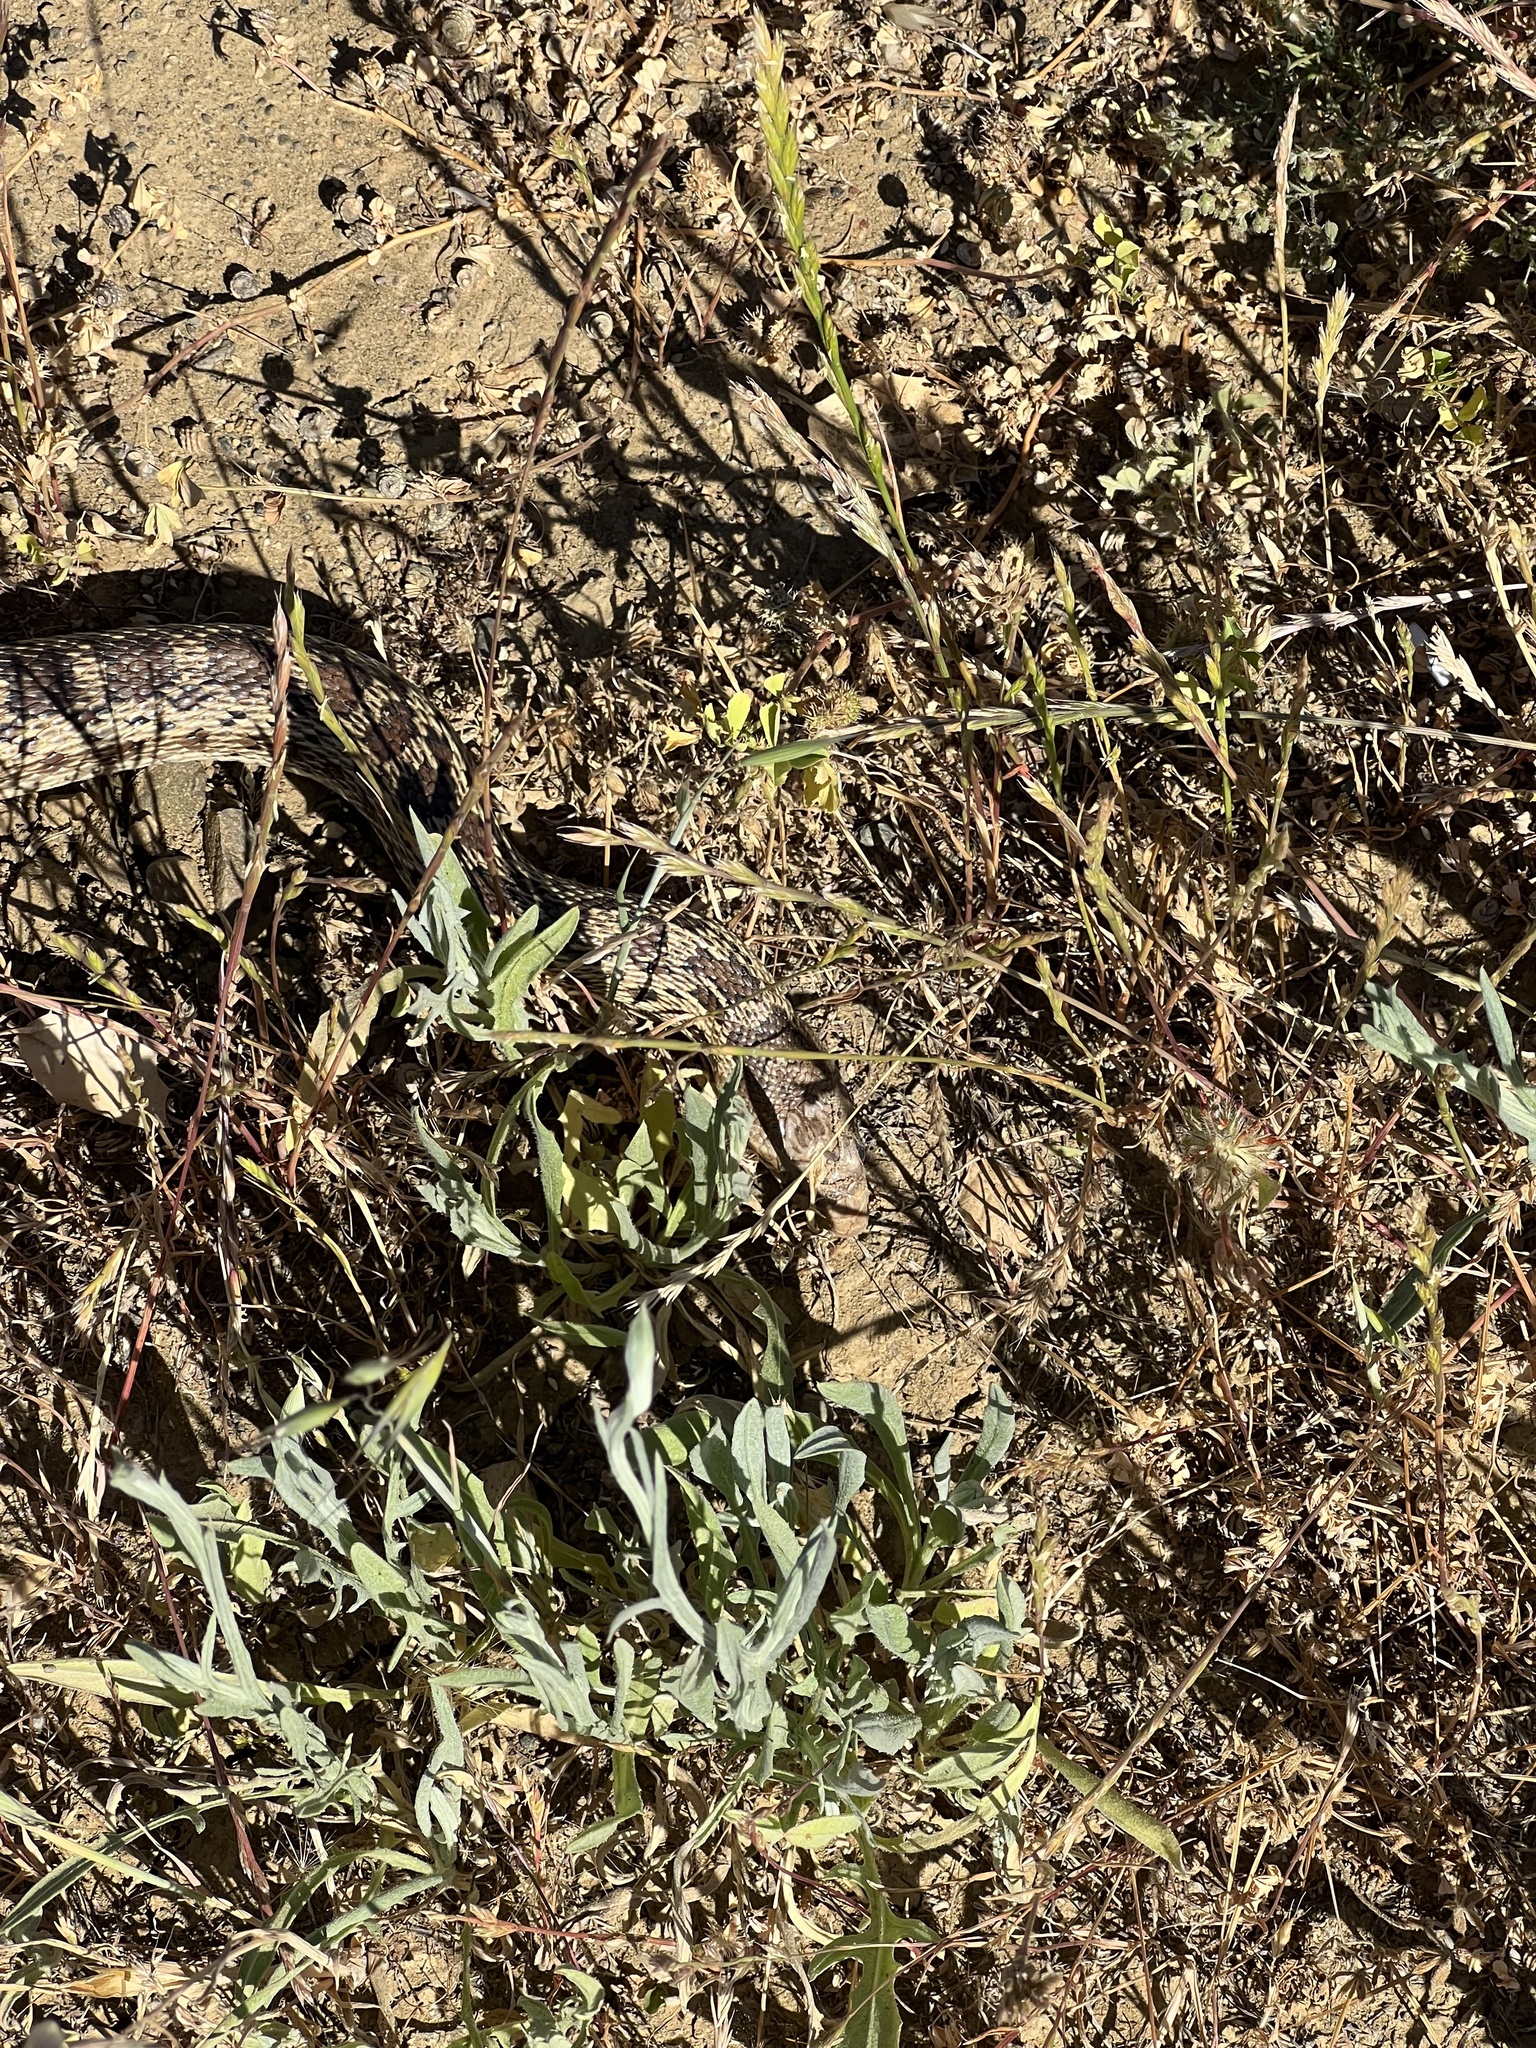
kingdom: Animalia
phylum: Chordata
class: Squamata
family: Colubridae
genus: Pituophis
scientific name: Pituophis catenifer
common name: Gopher snake
